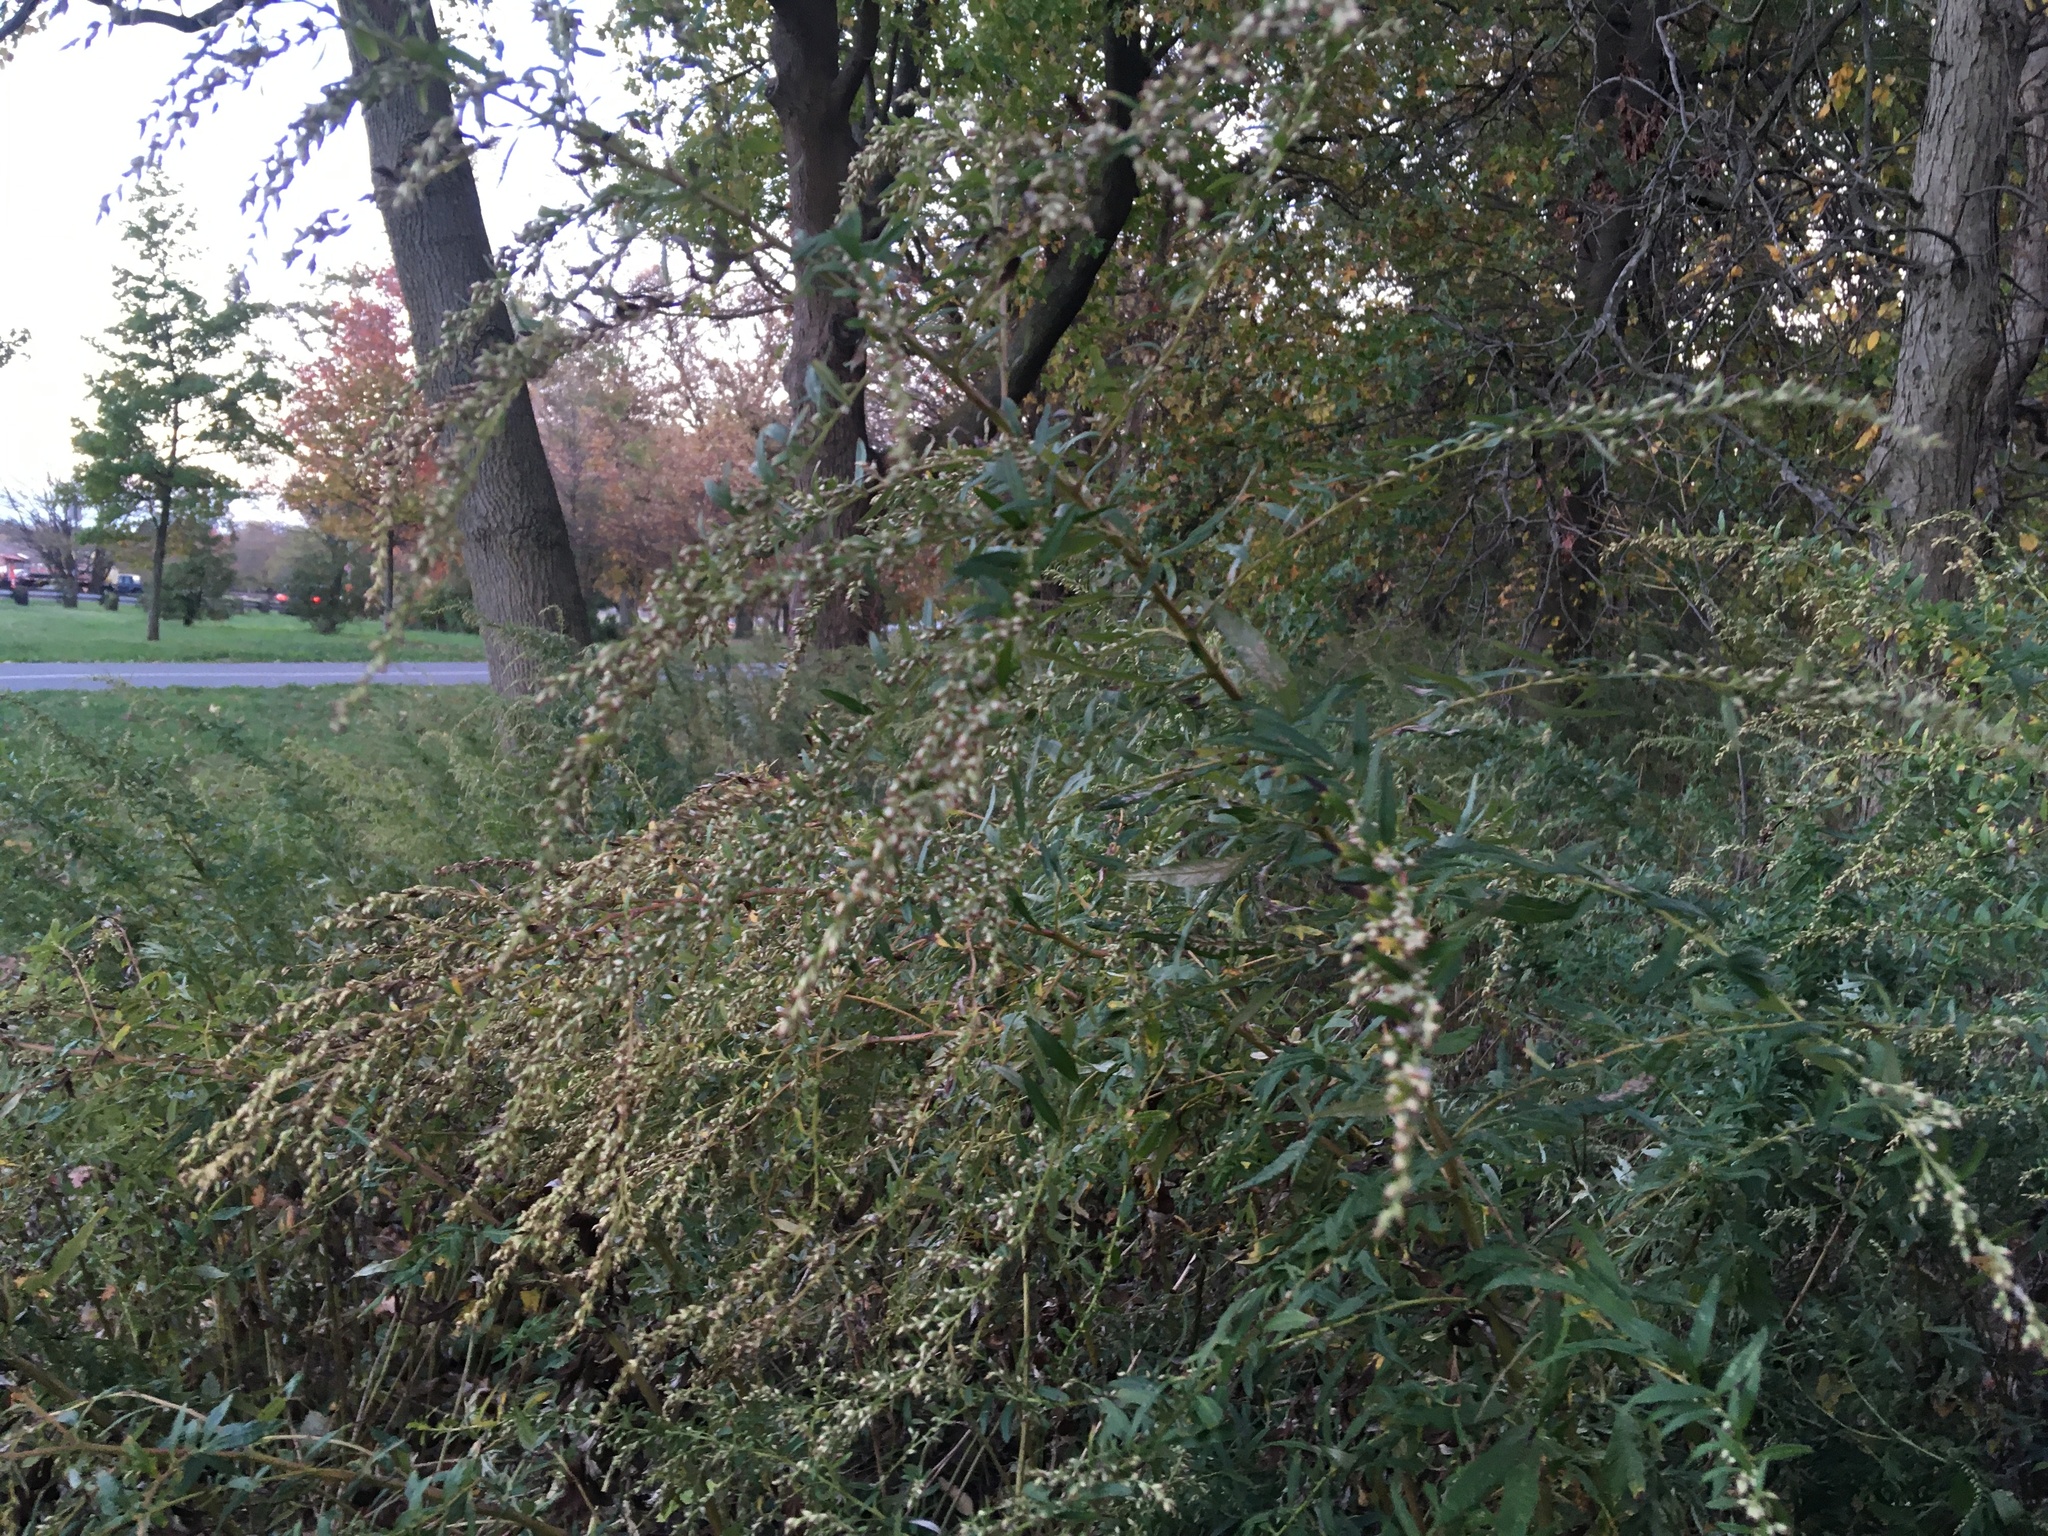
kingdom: Plantae
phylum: Tracheophyta
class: Magnoliopsida
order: Asterales
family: Asteraceae
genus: Artemisia
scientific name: Artemisia vulgaris
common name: Mugwort
